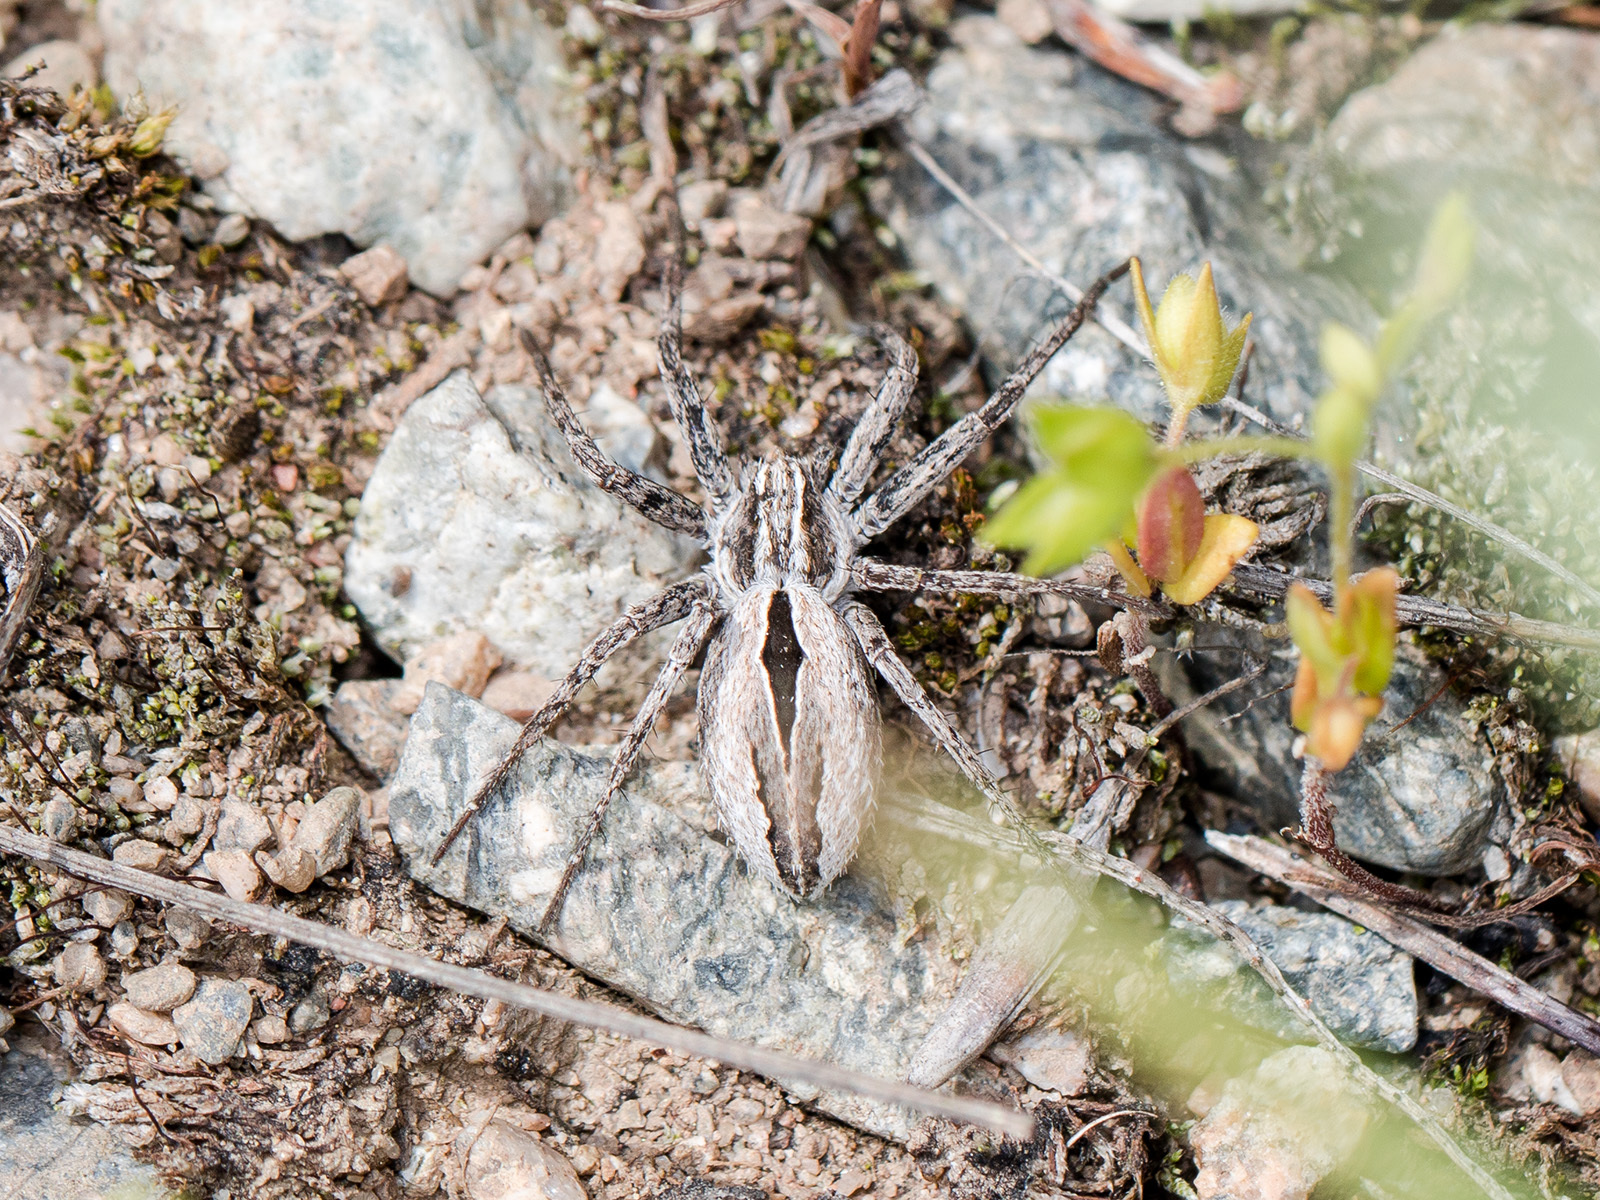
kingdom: Animalia
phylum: Arthropoda
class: Arachnida
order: Araneae
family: Philodromidae
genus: Thanatus
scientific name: Thanatus arenarius
